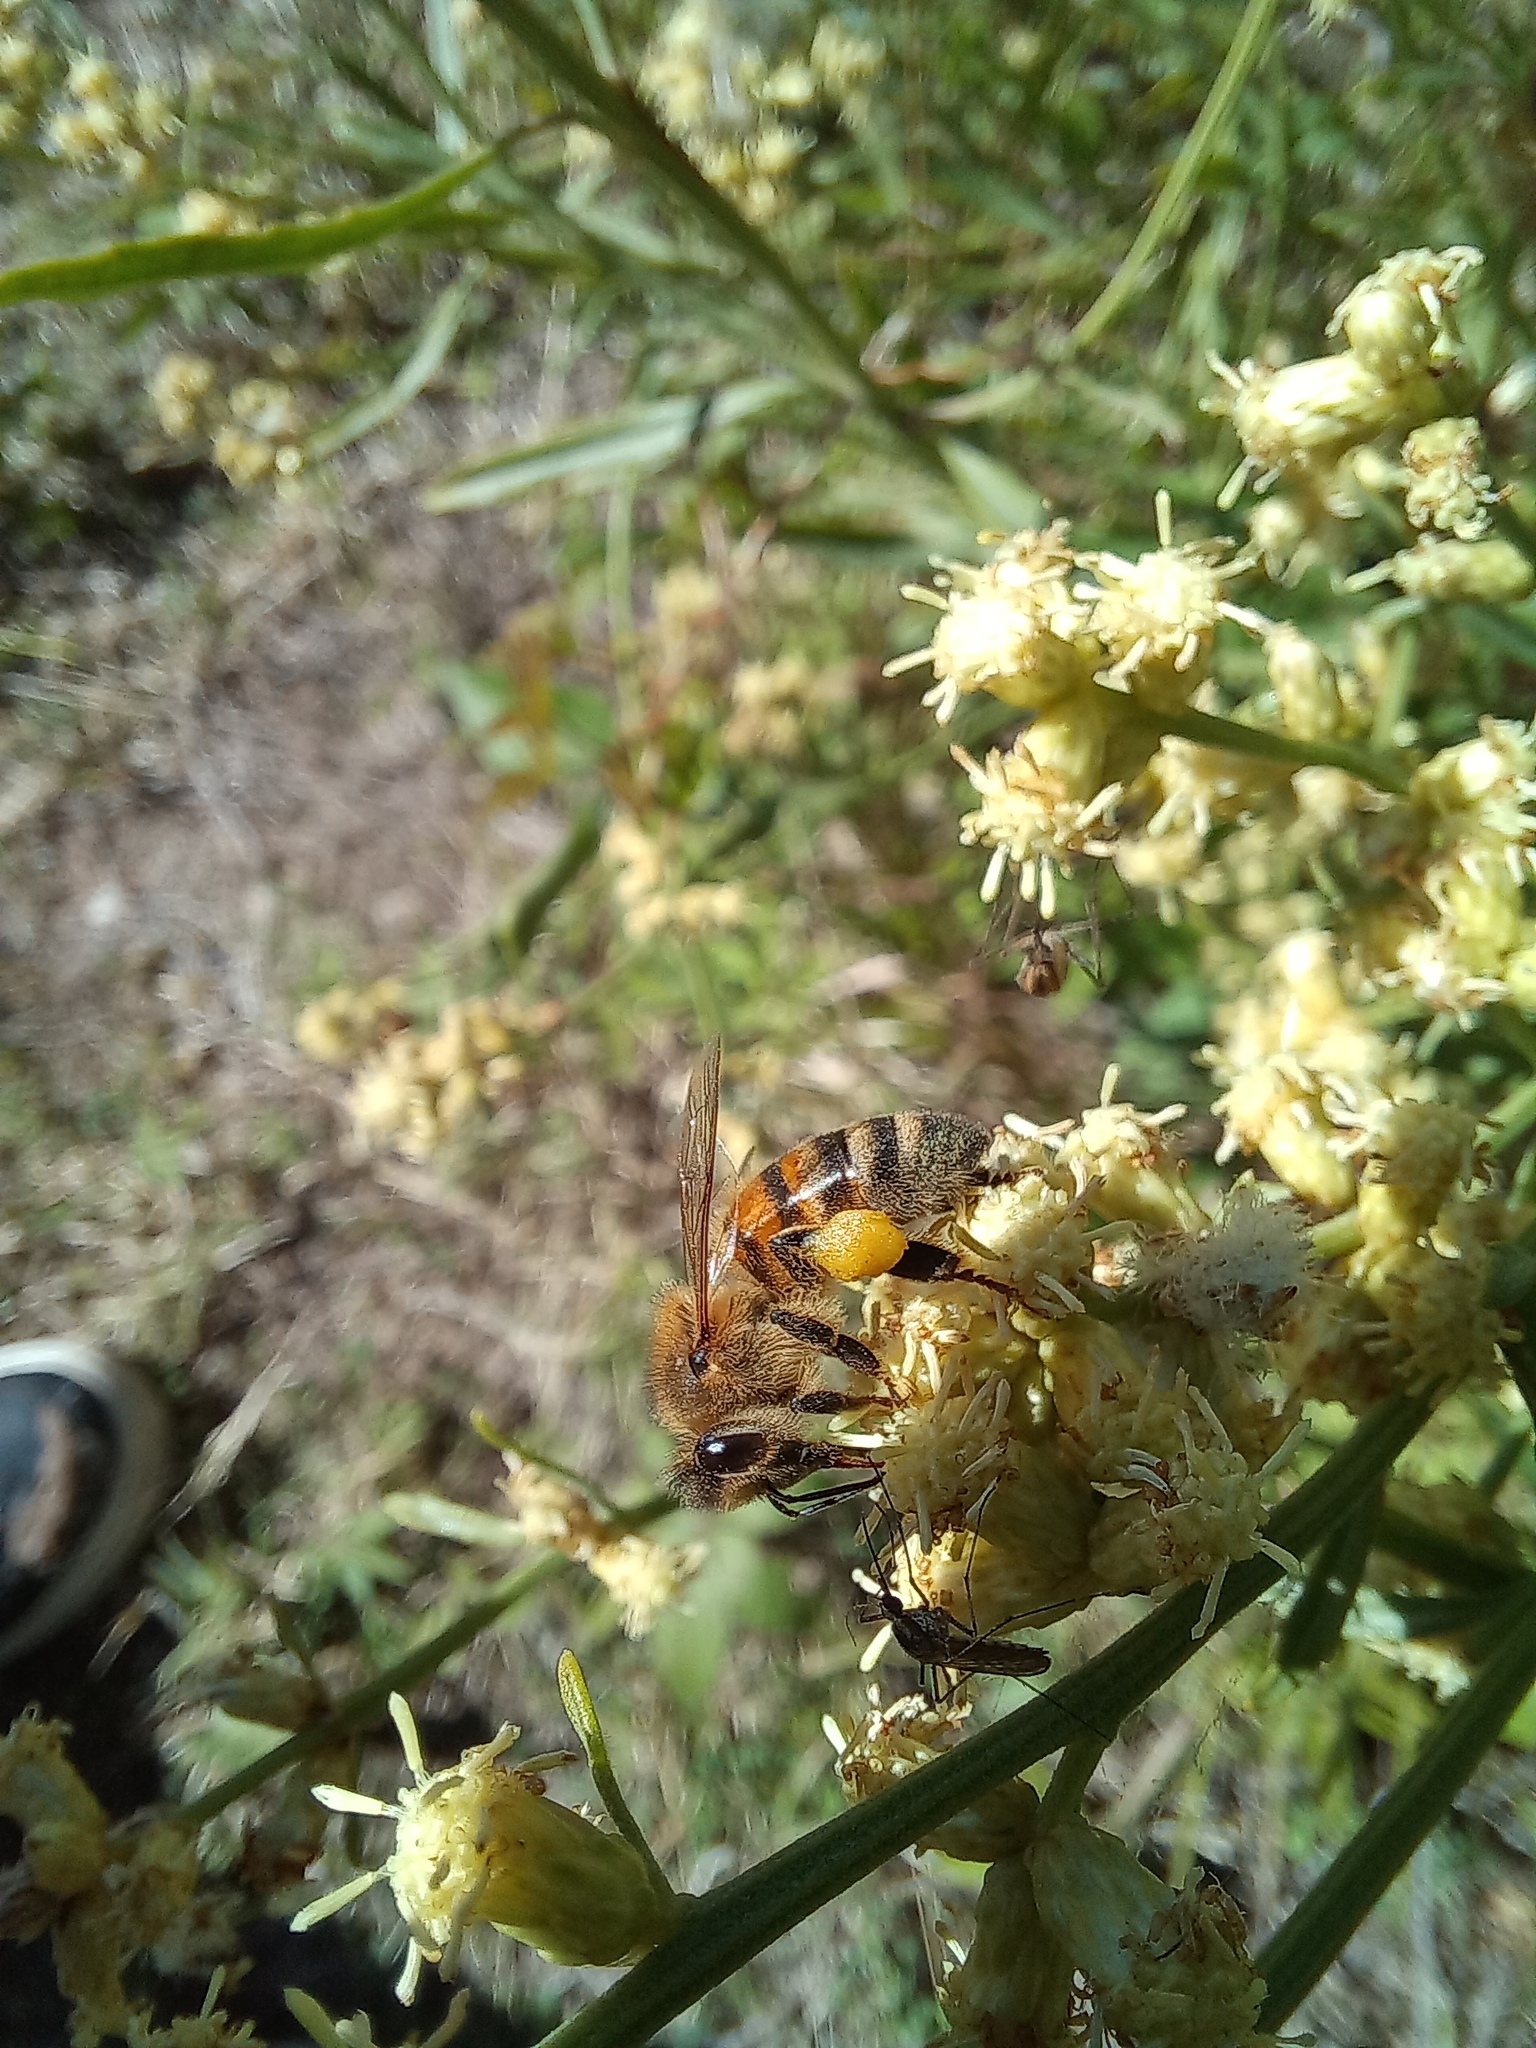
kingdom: Animalia
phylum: Arthropoda
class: Insecta
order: Hymenoptera
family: Apidae
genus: Apis
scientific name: Apis mellifera
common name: Honey bee
